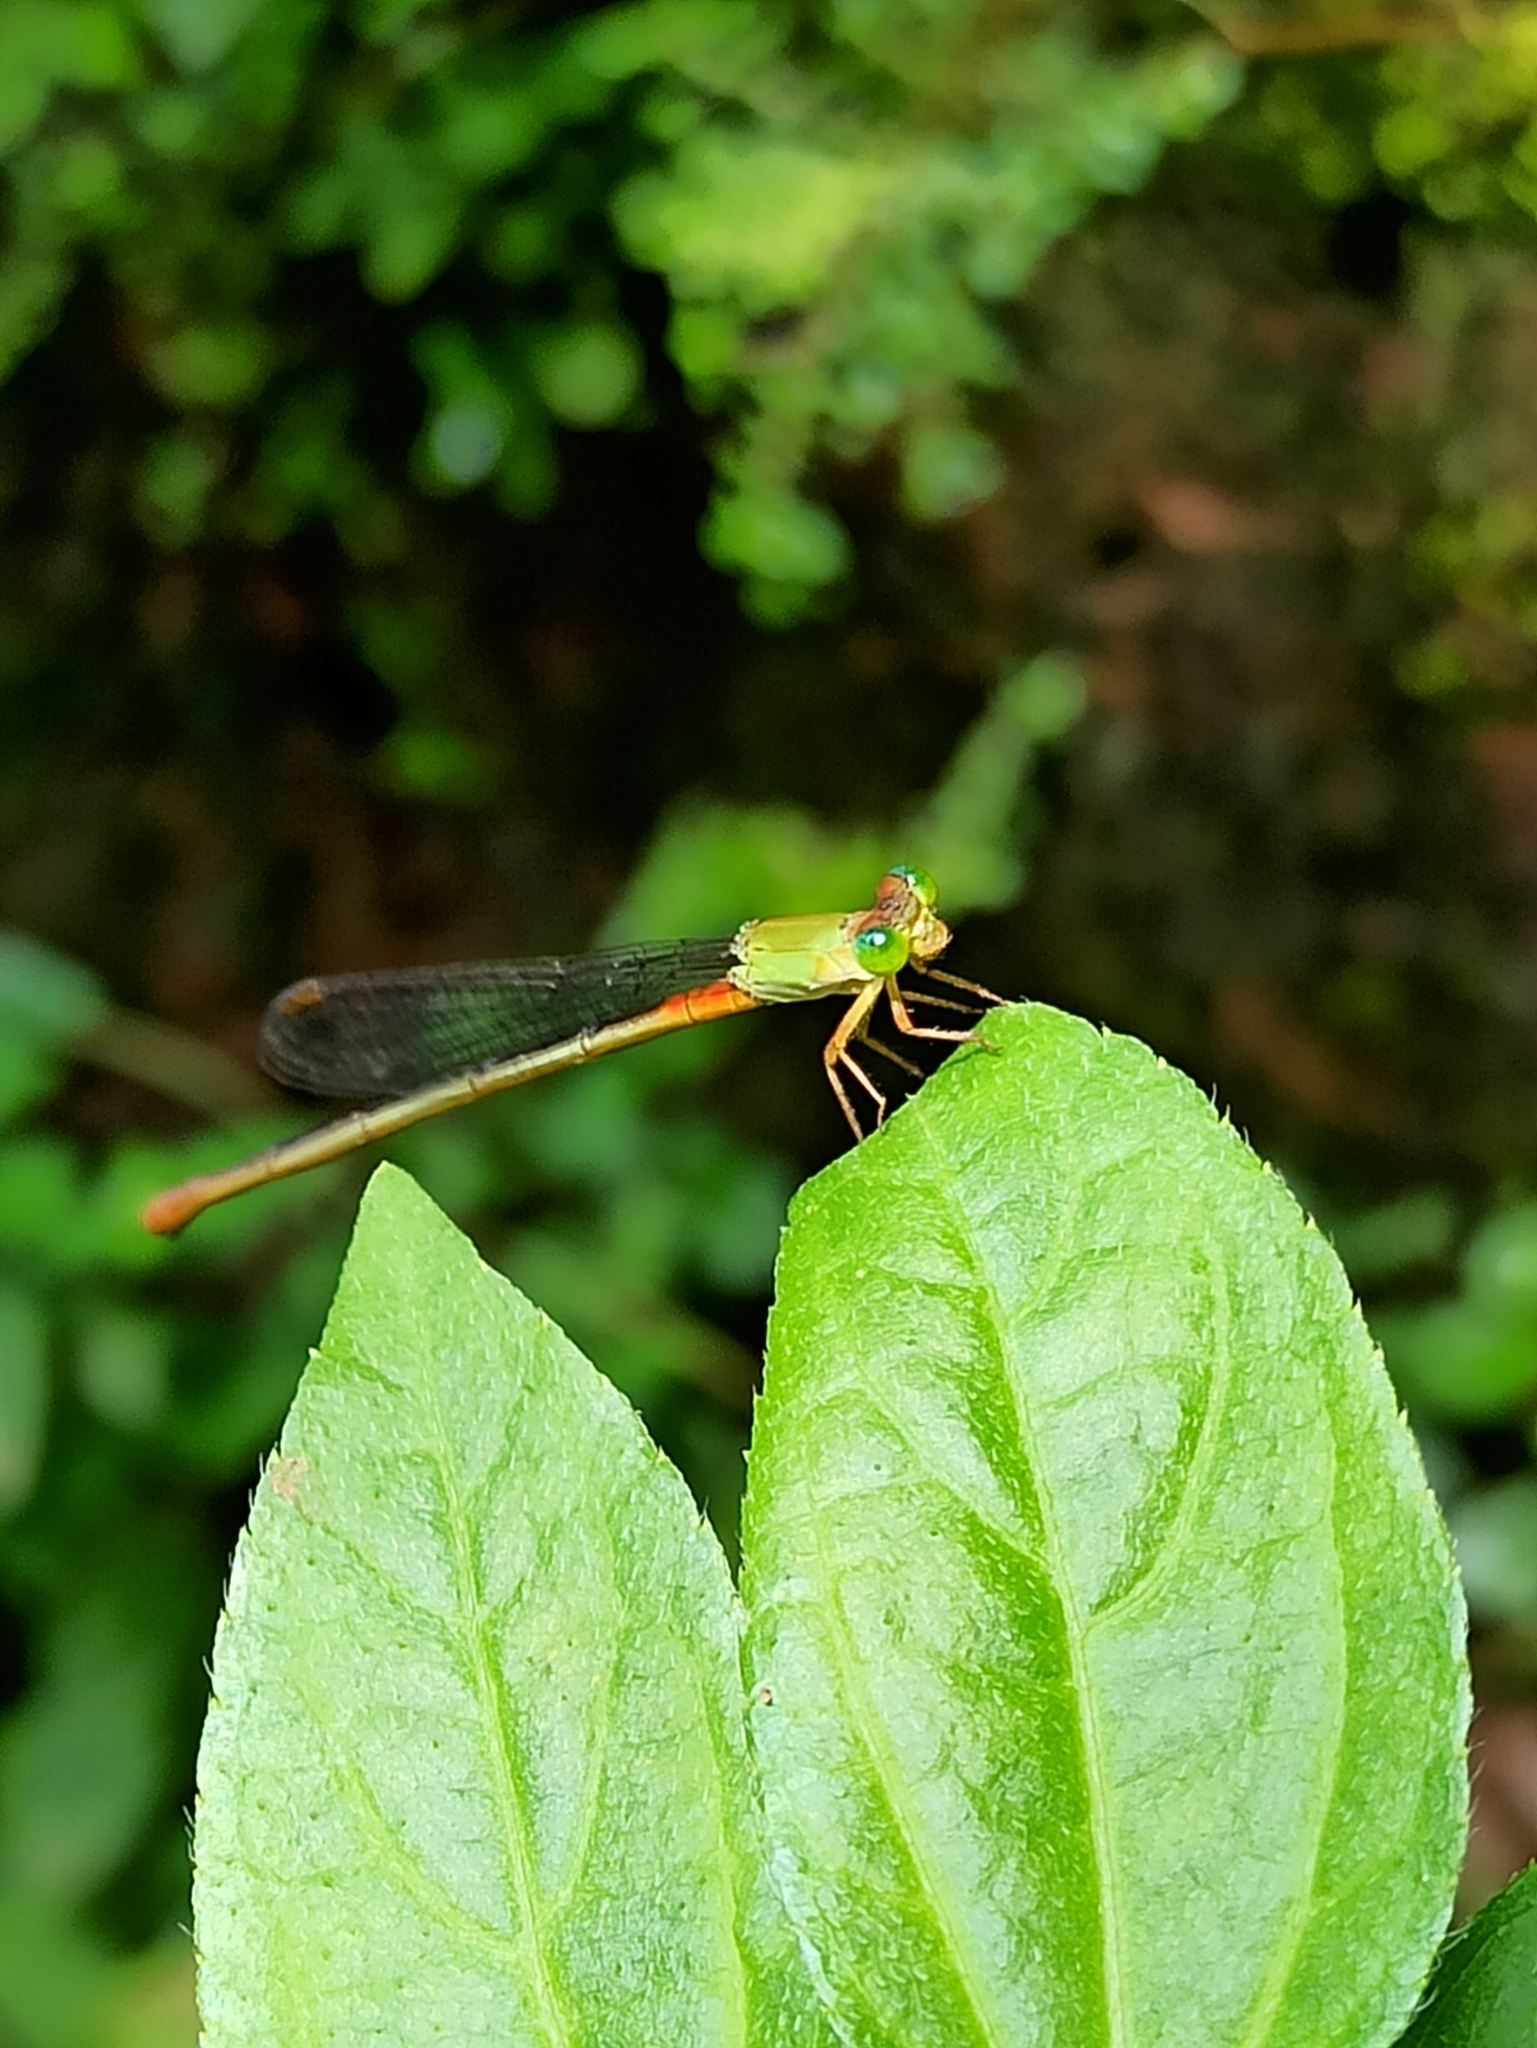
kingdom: Animalia
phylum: Arthropoda
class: Insecta
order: Odonata
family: Coenagrionidae
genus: Ceriagrion
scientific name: Ceriagrion cerinorubellum
